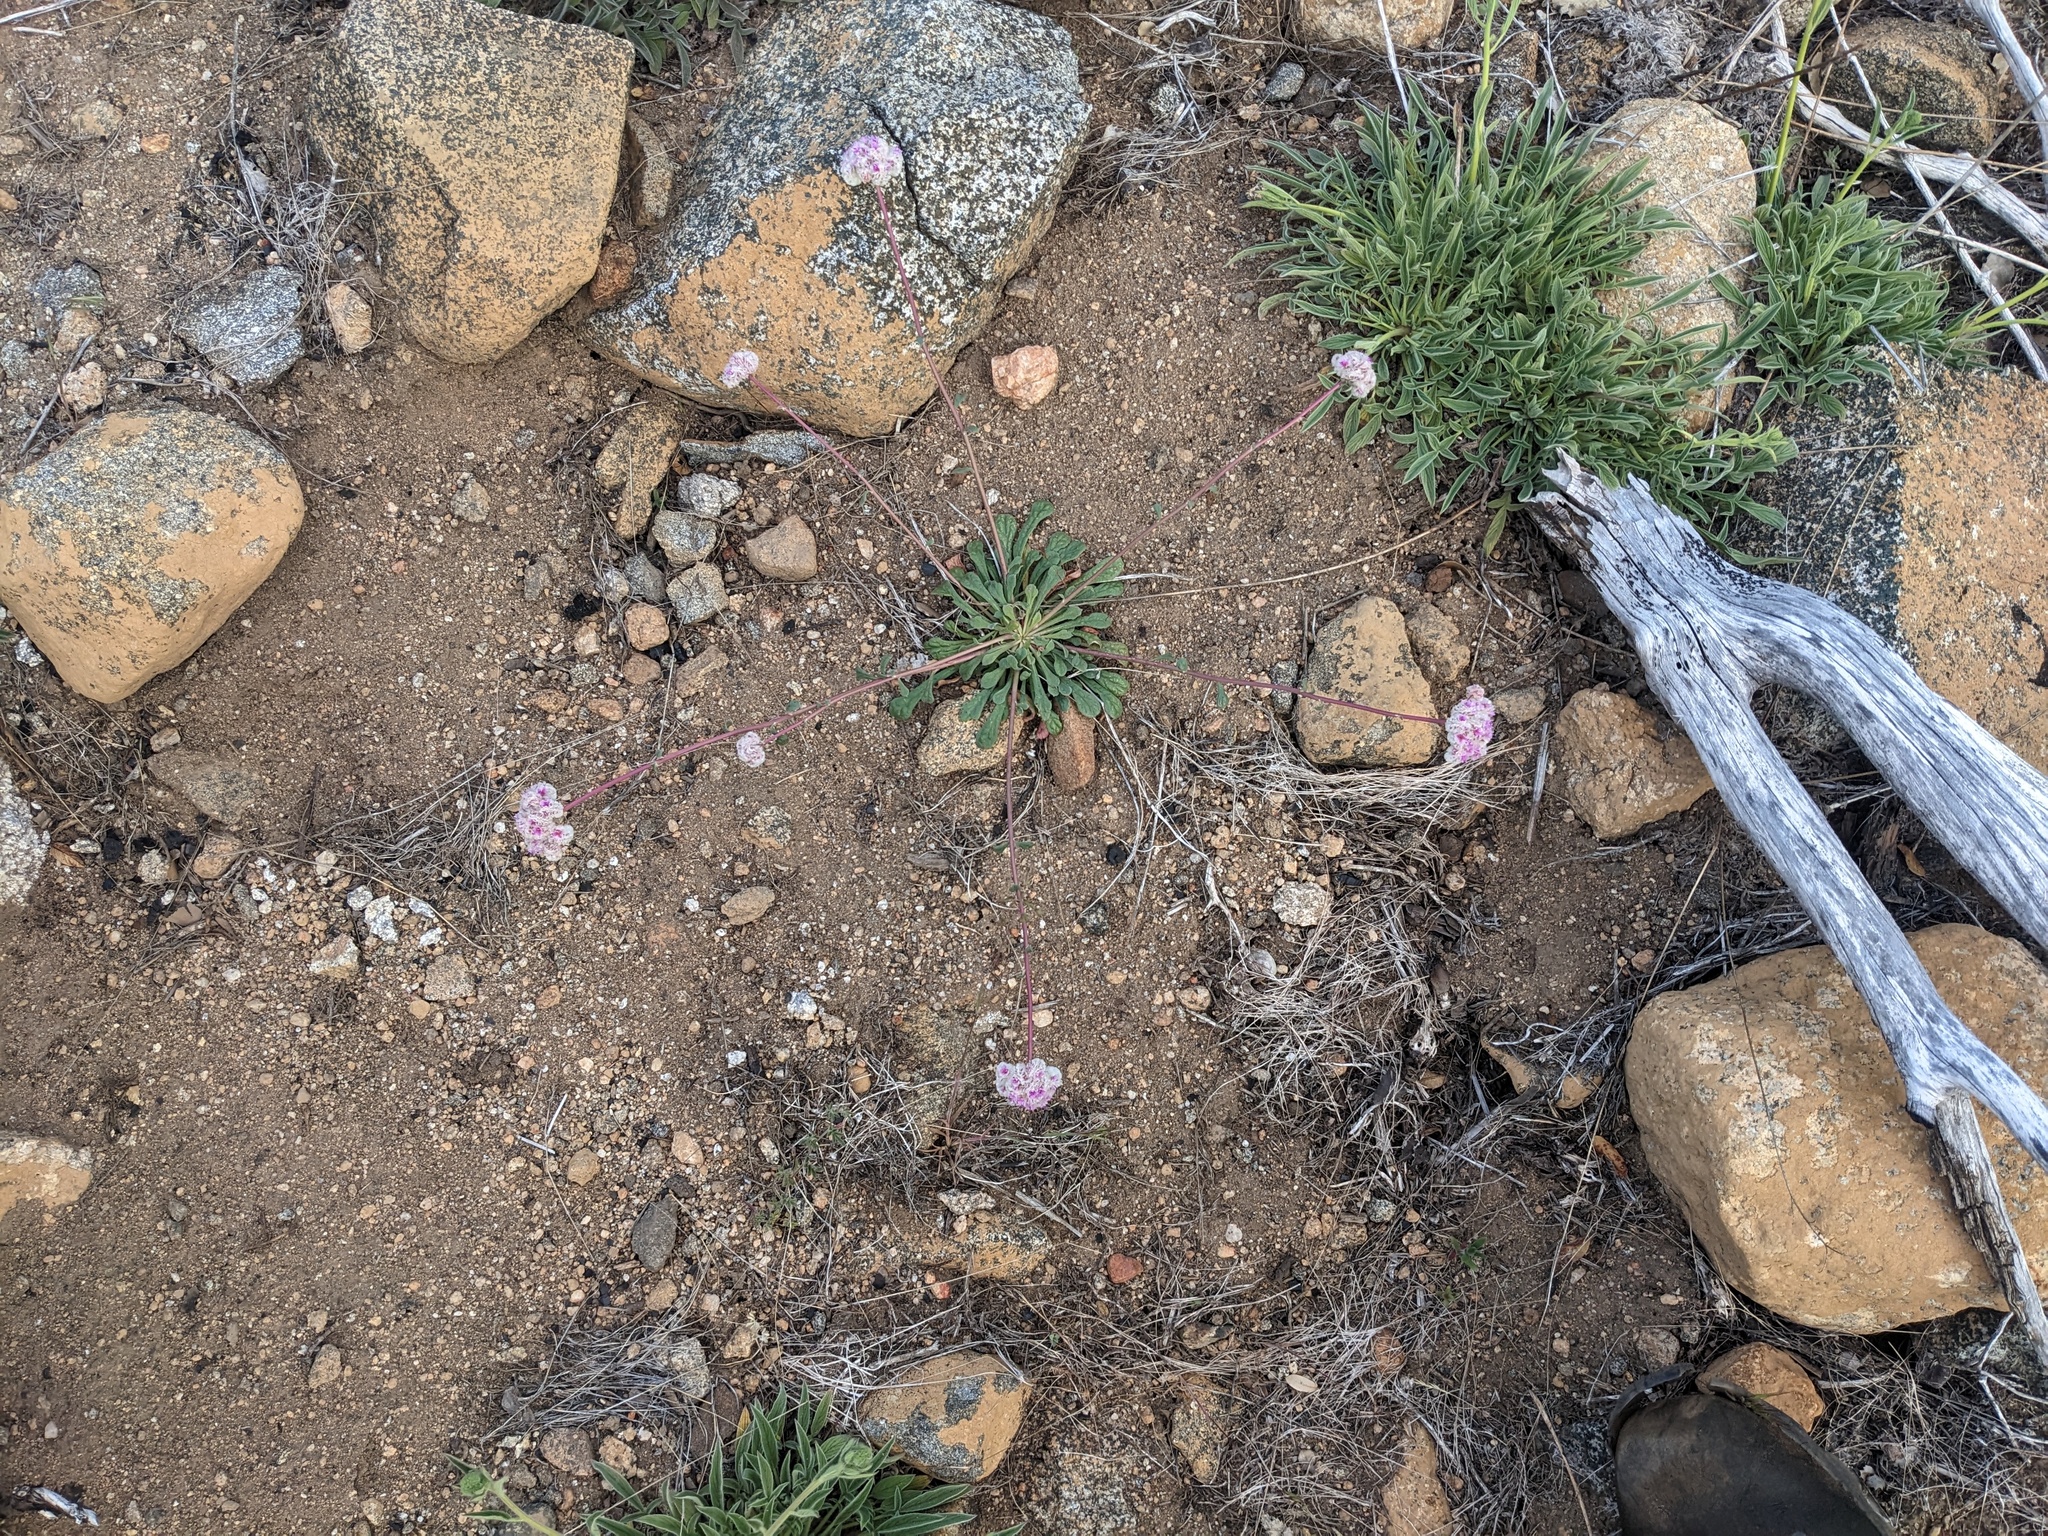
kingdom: Plantae
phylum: Tracheophyta
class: Magnoliopsida
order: Caryophyllales
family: Montiaceae
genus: Calyptridium
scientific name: Calyptridium monospermum
